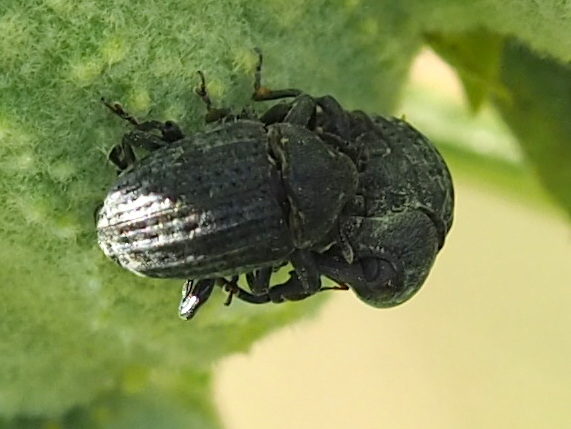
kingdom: Animalia
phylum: Arthropoda
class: Insecta
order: Coleoptera
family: Curculionidae
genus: Rhyssomatus
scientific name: Rhyssomatus lineaticollis
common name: Milkweed stem weevil
